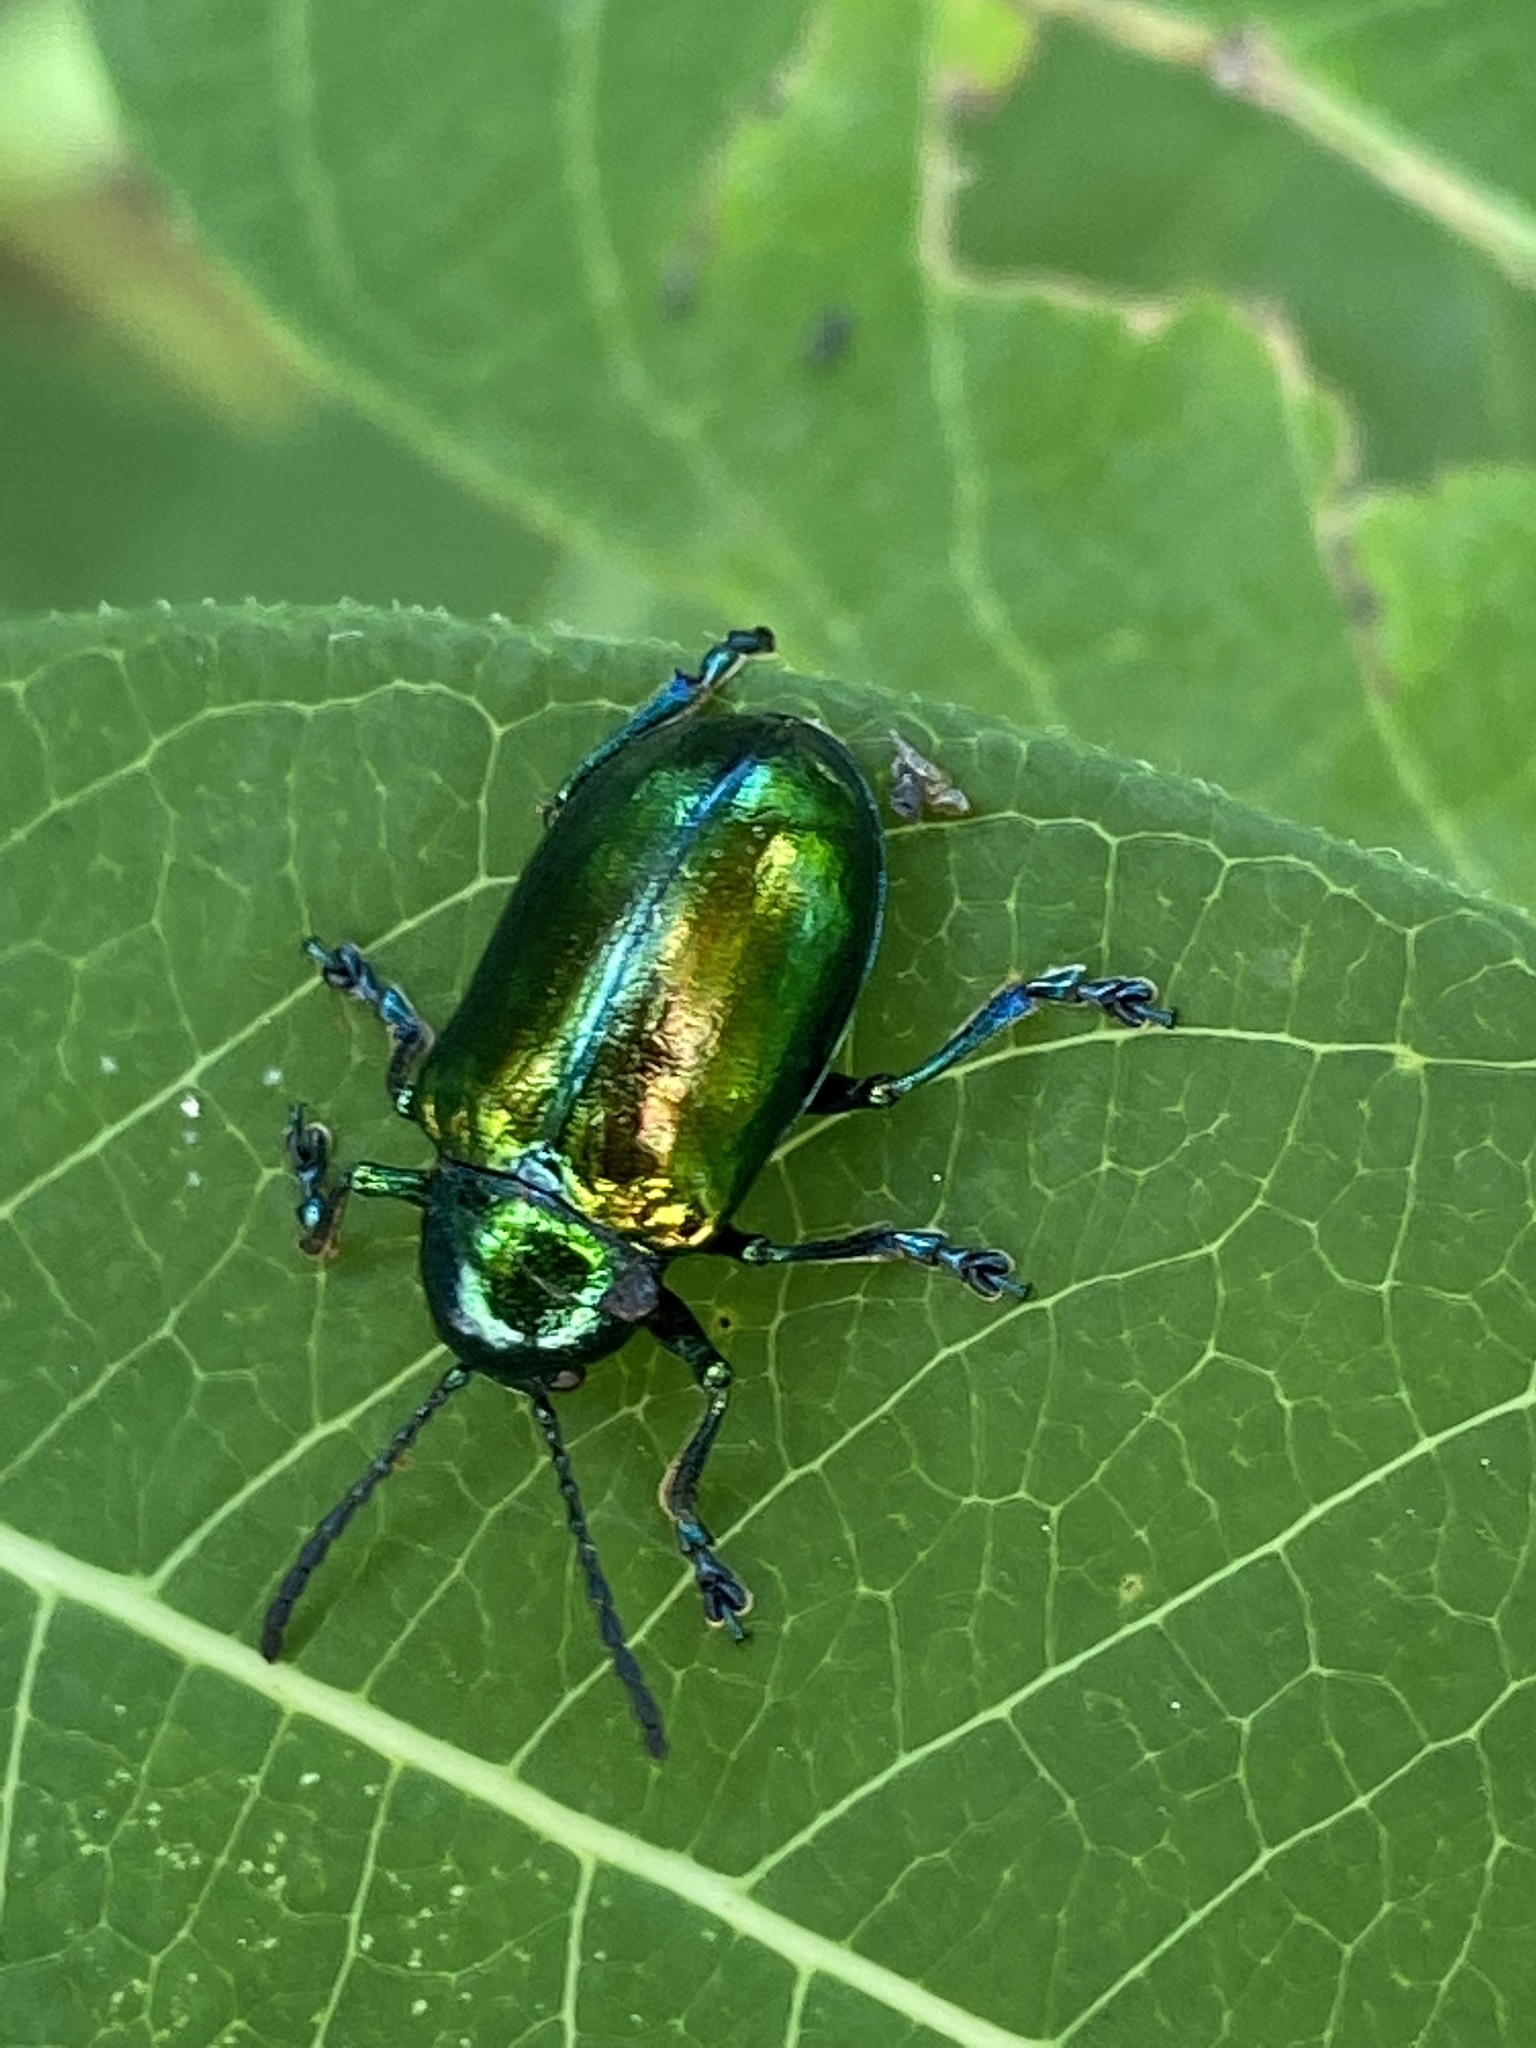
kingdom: Animalia
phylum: Arthropoda
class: Insecta
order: Coleoptera
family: Chrysomelidae
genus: Chrysochus
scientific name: Chrysochus auratus
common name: Dogbane leaf beetle
